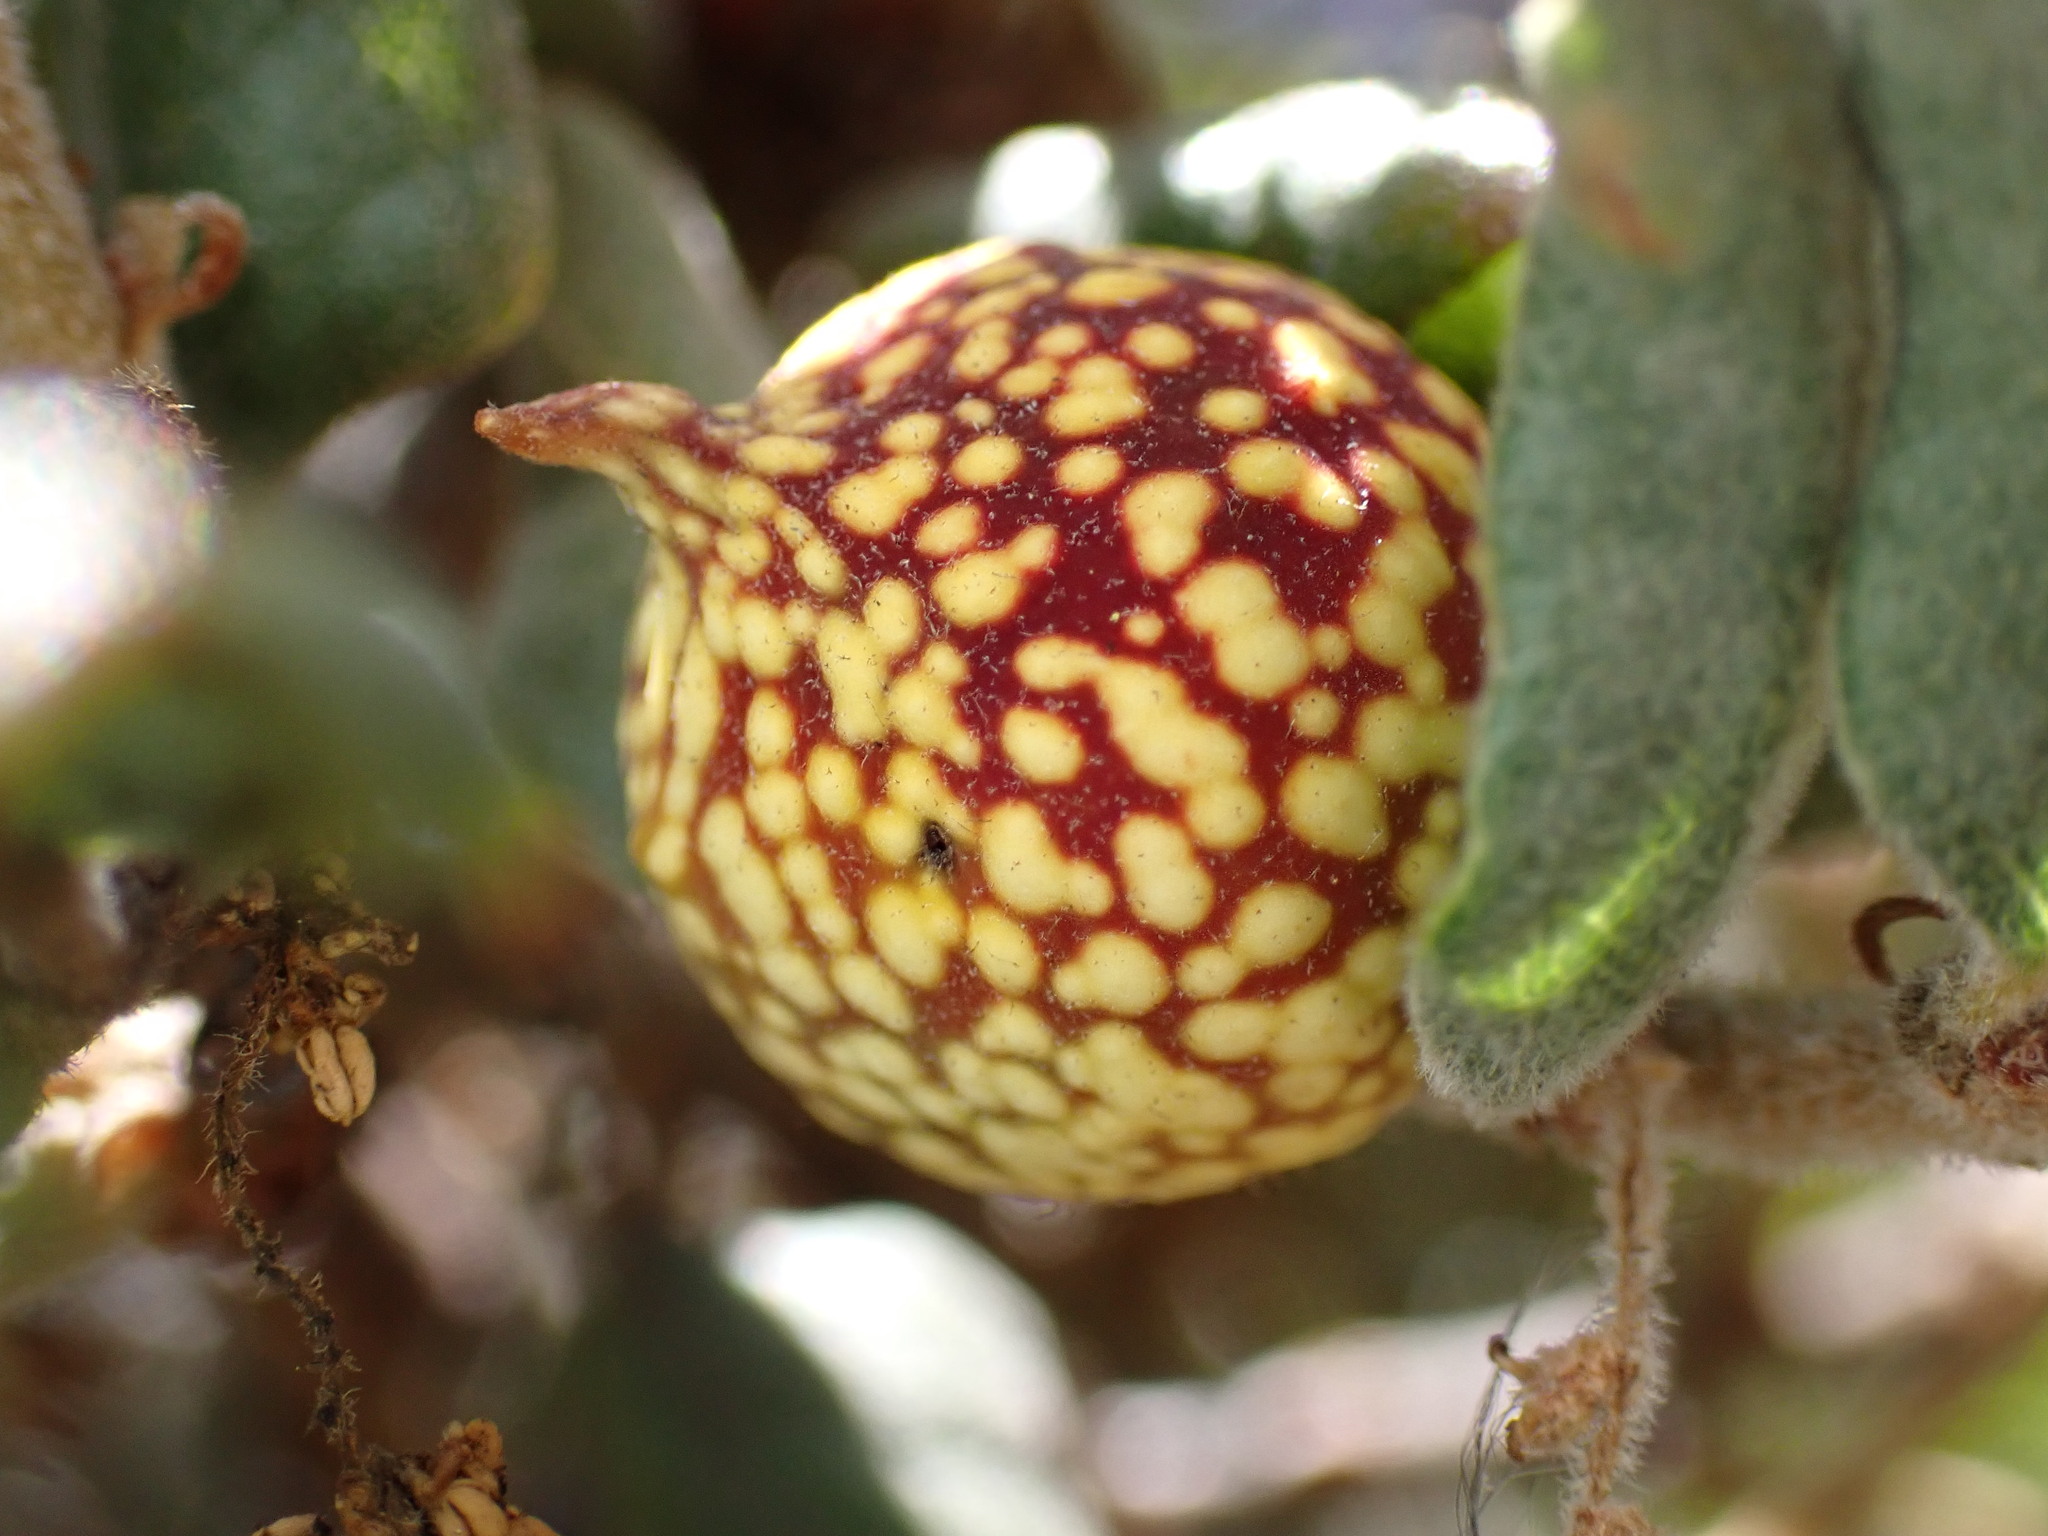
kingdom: Animalia
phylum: Arthropoda
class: Insecta
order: Hymenoptera
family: Cynipidae
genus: Burnettweldia
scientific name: Burnettweldia
